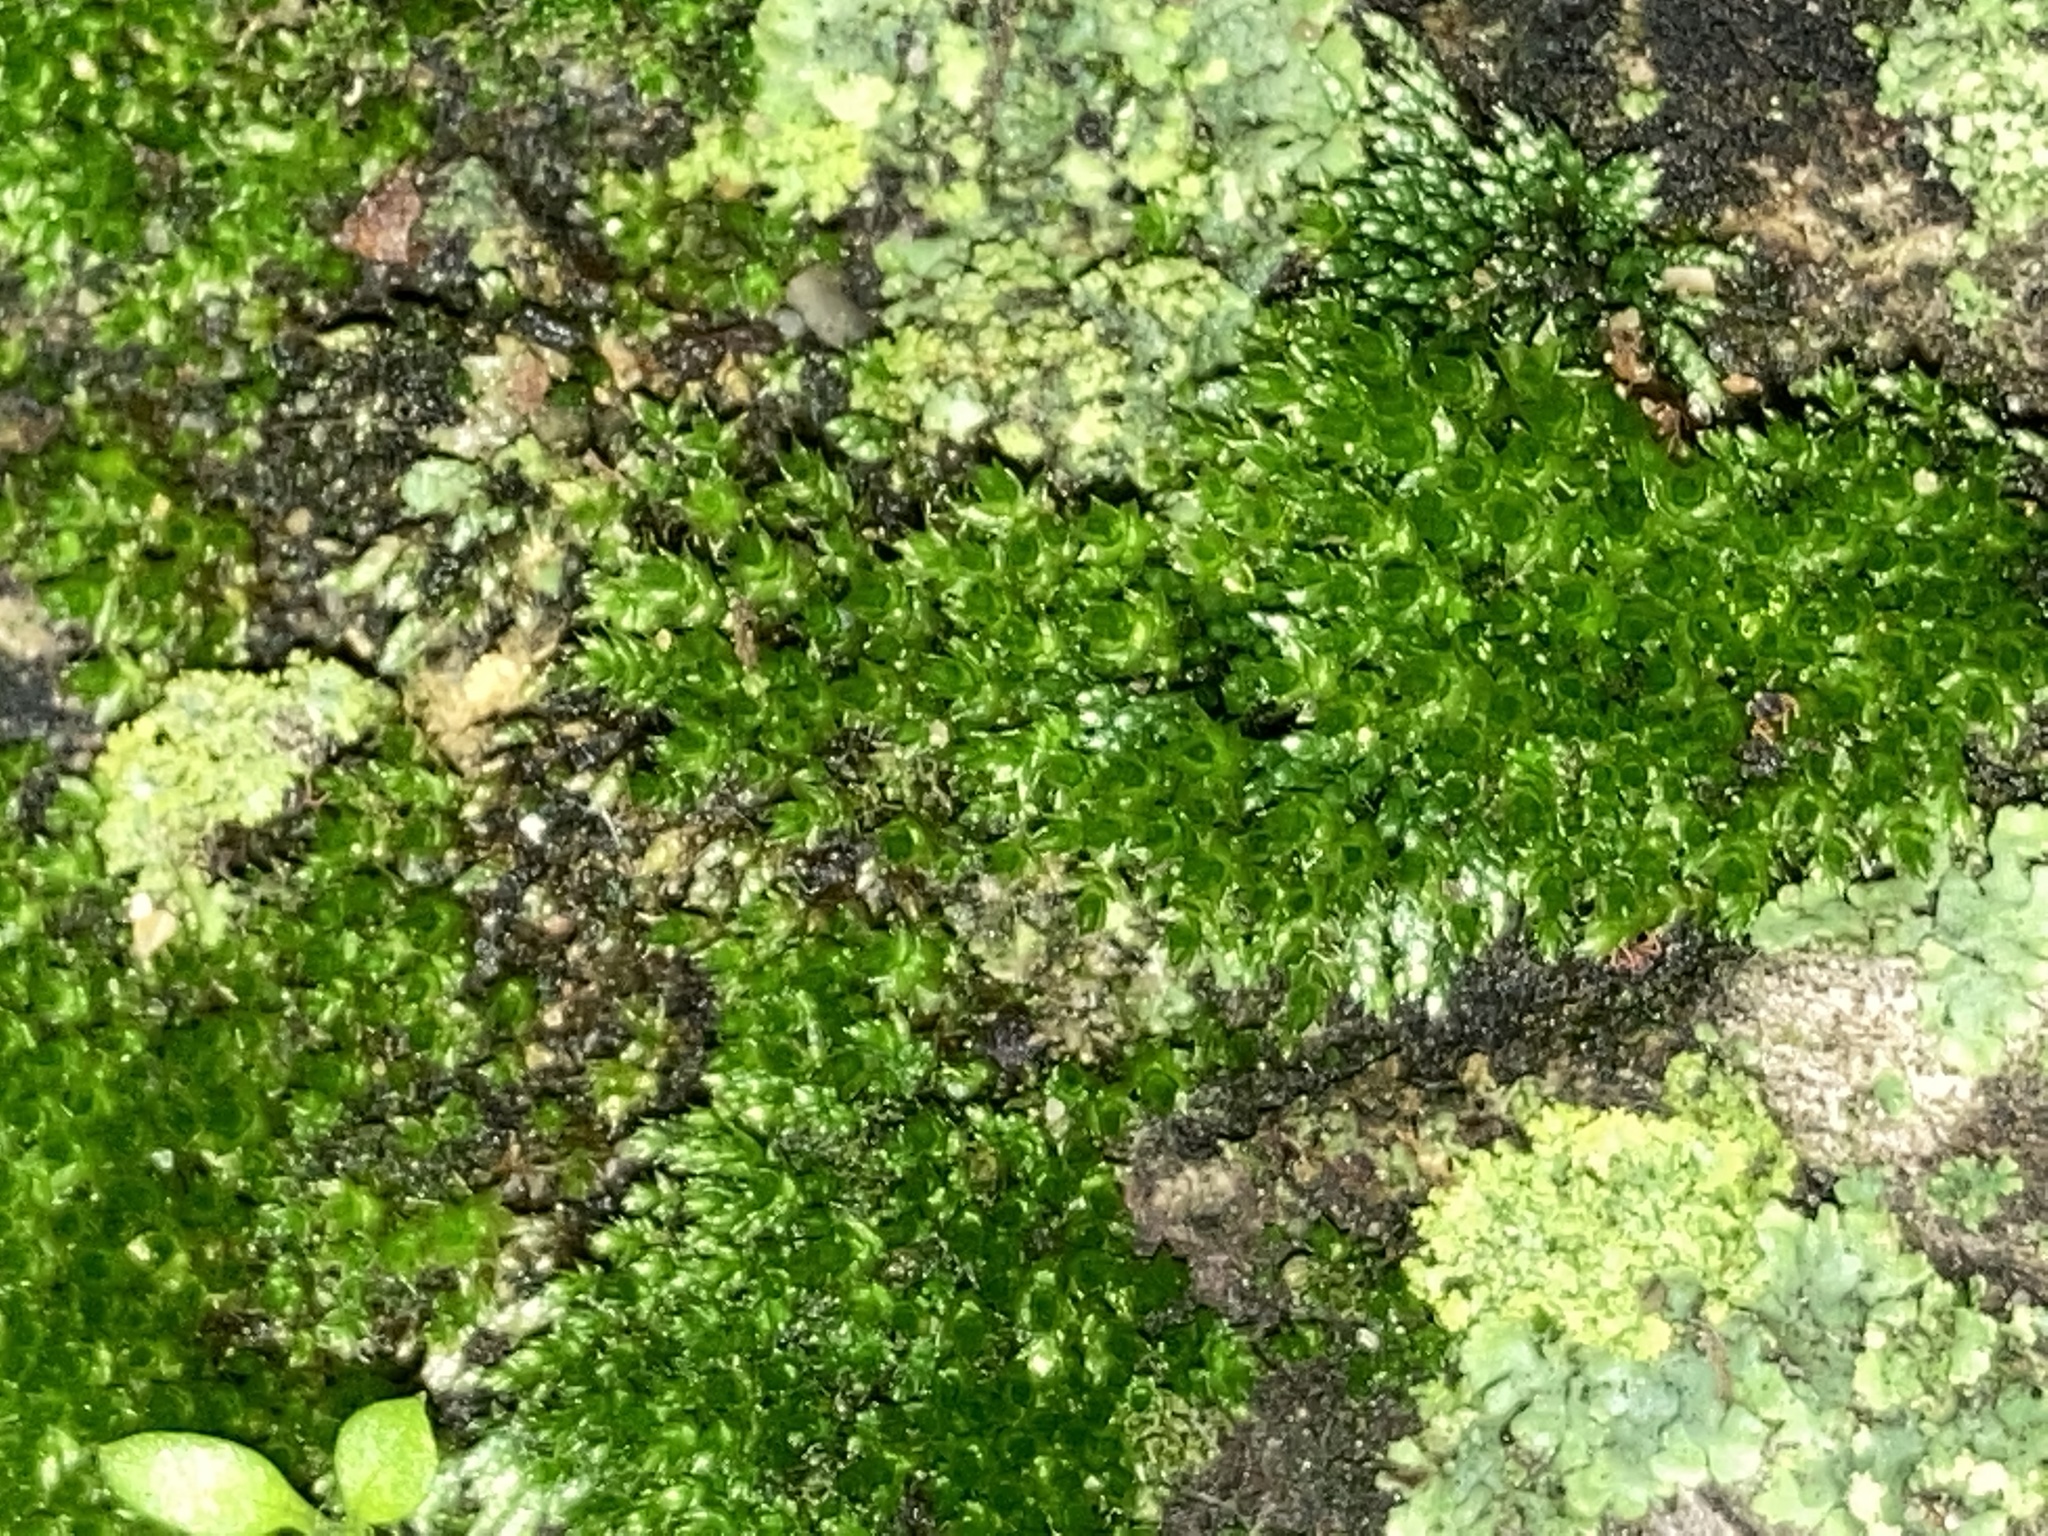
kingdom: Plantae
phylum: Bryophyta
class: Bryopsida
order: Bryales
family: Bryaceae
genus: Bryum
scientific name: Bryum argenteum
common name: Silver-moss
